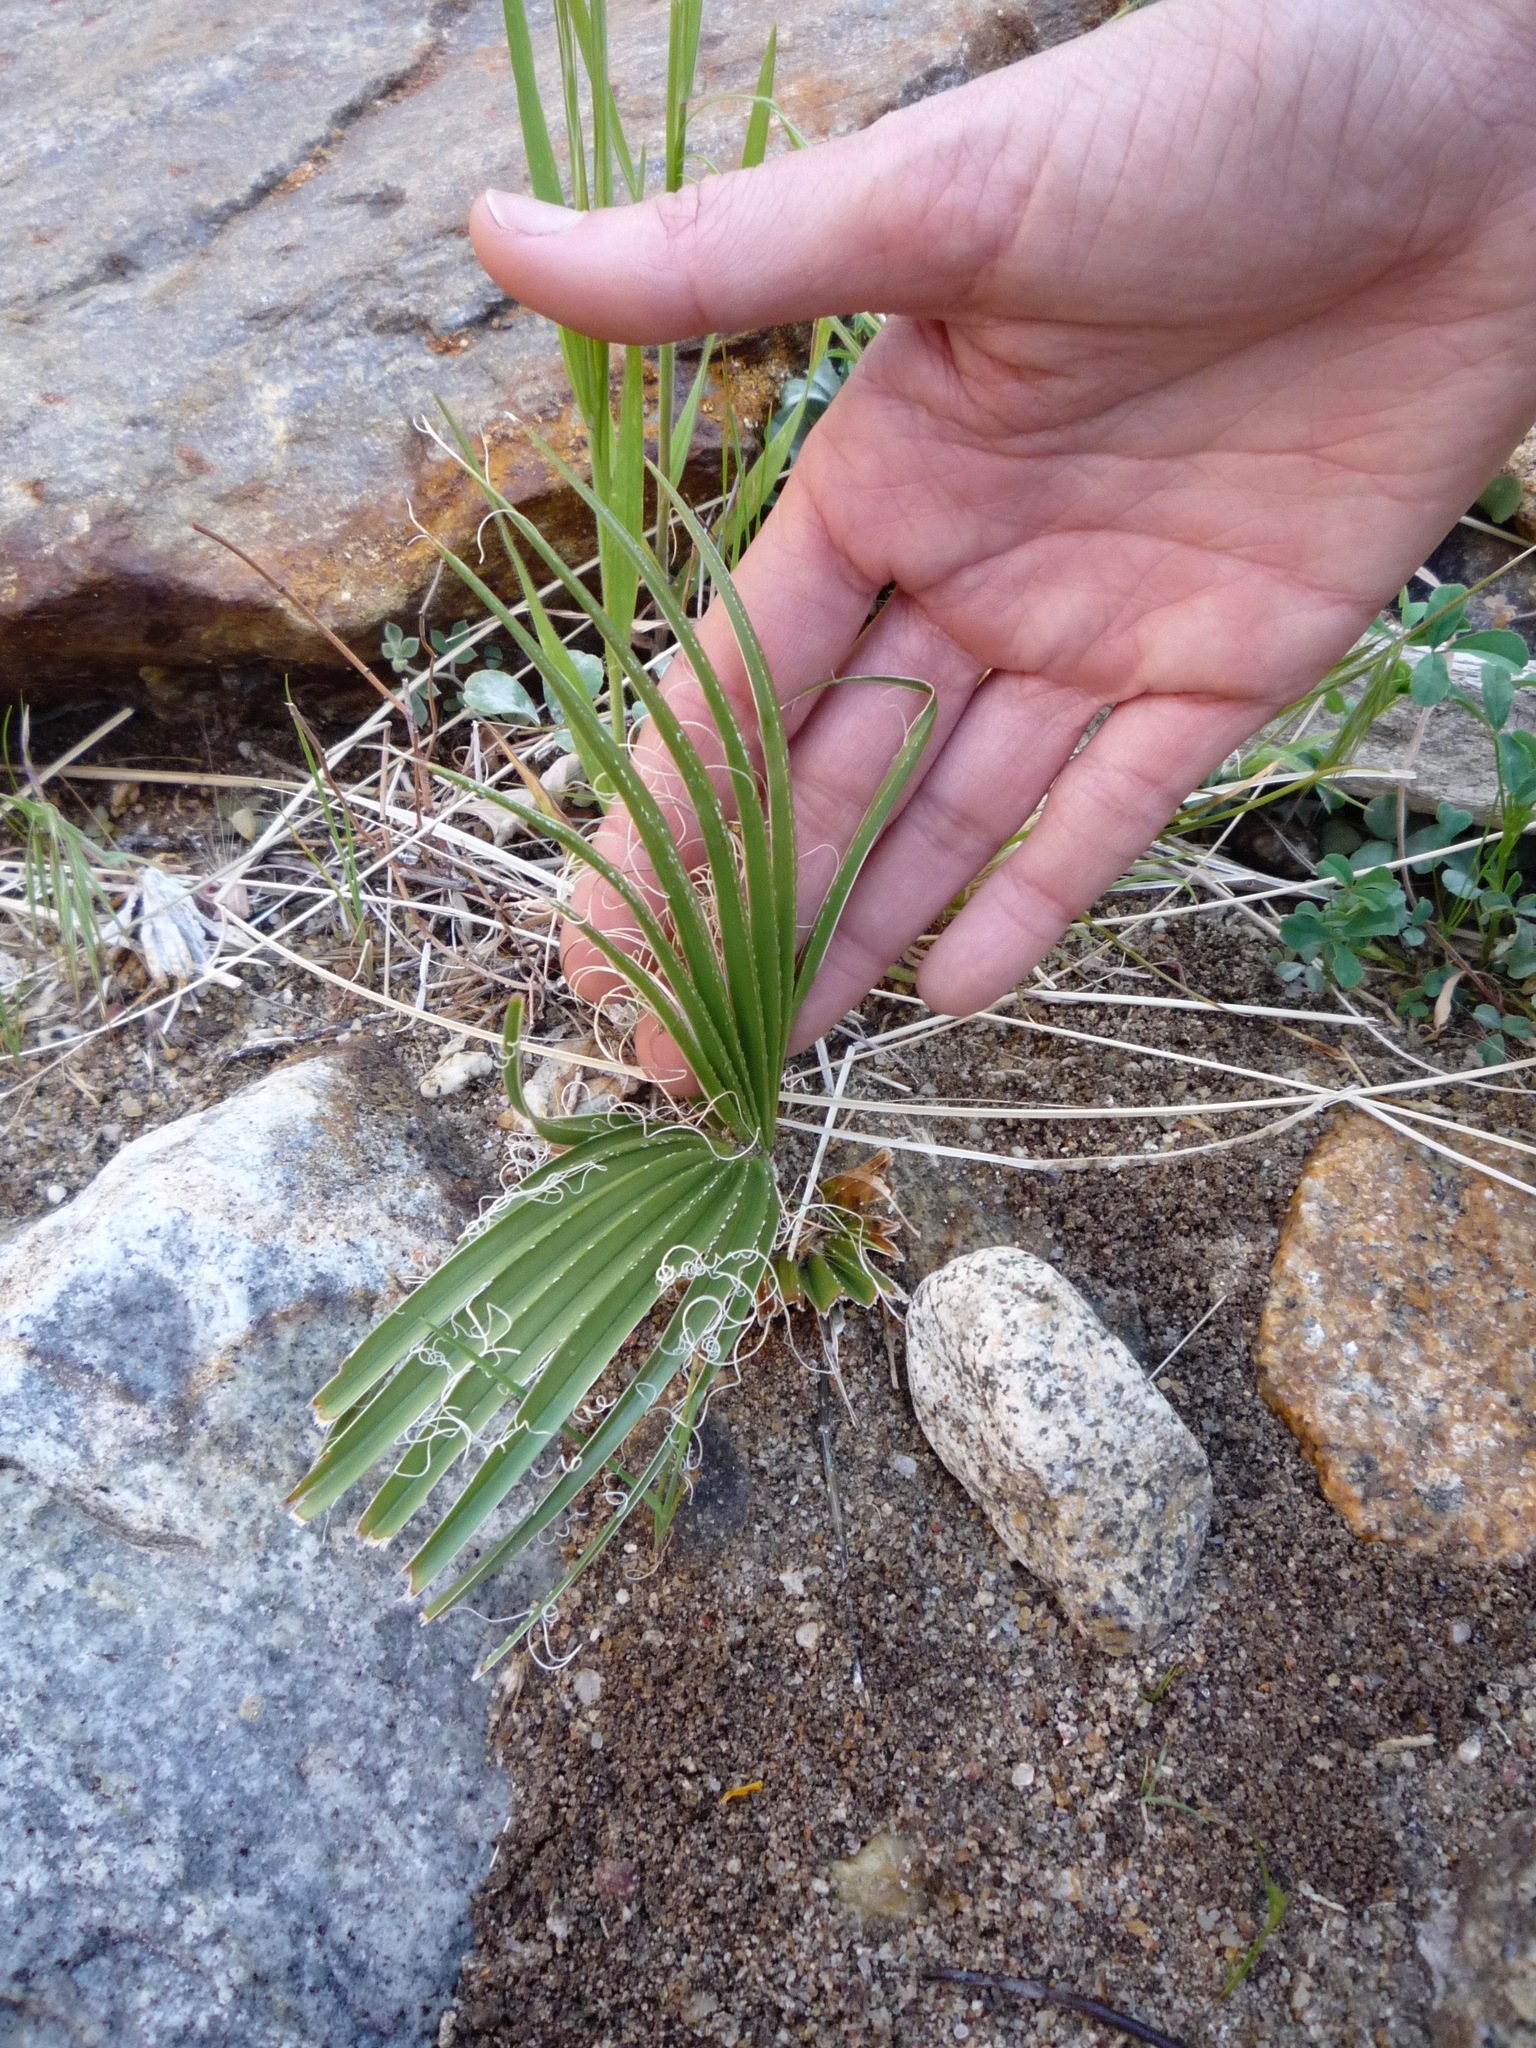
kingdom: Plantae
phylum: Tracheophyta
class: Liliopsida
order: Arecales
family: Arecaceae
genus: Washingtonia
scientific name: Washingtonia filifera
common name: California fan palm
